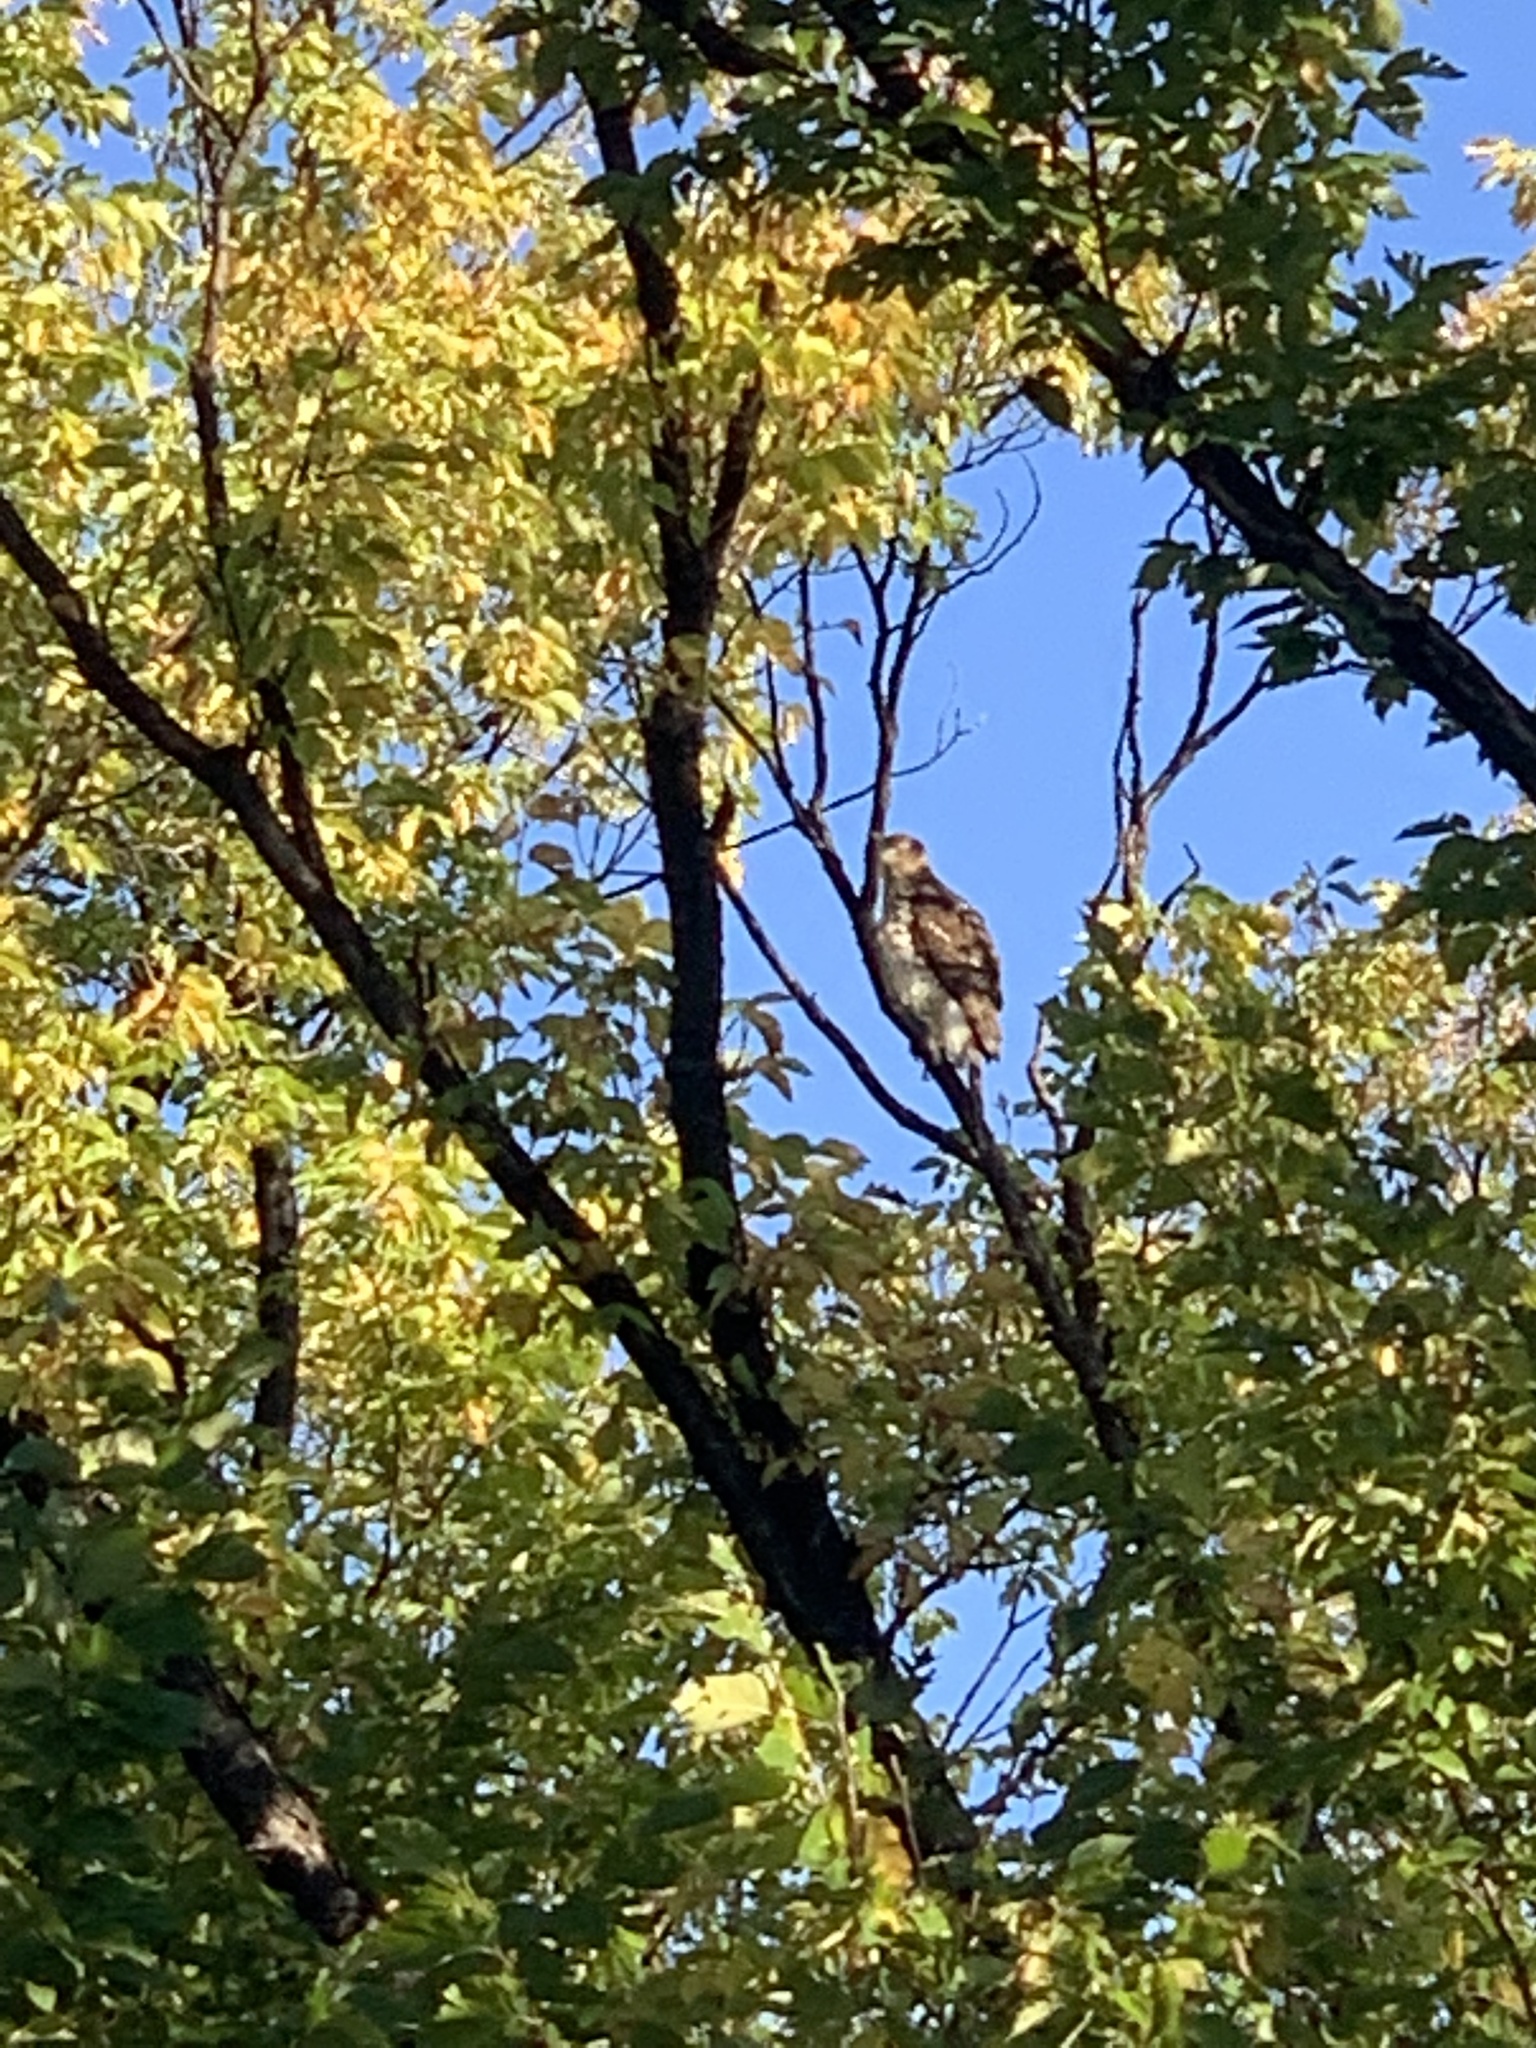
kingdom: Animalia
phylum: Chordata
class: Aves
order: Accipitriformes
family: Accipitridae
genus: Accipiter
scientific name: Accipiter cooperii
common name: Cooper's hawk
